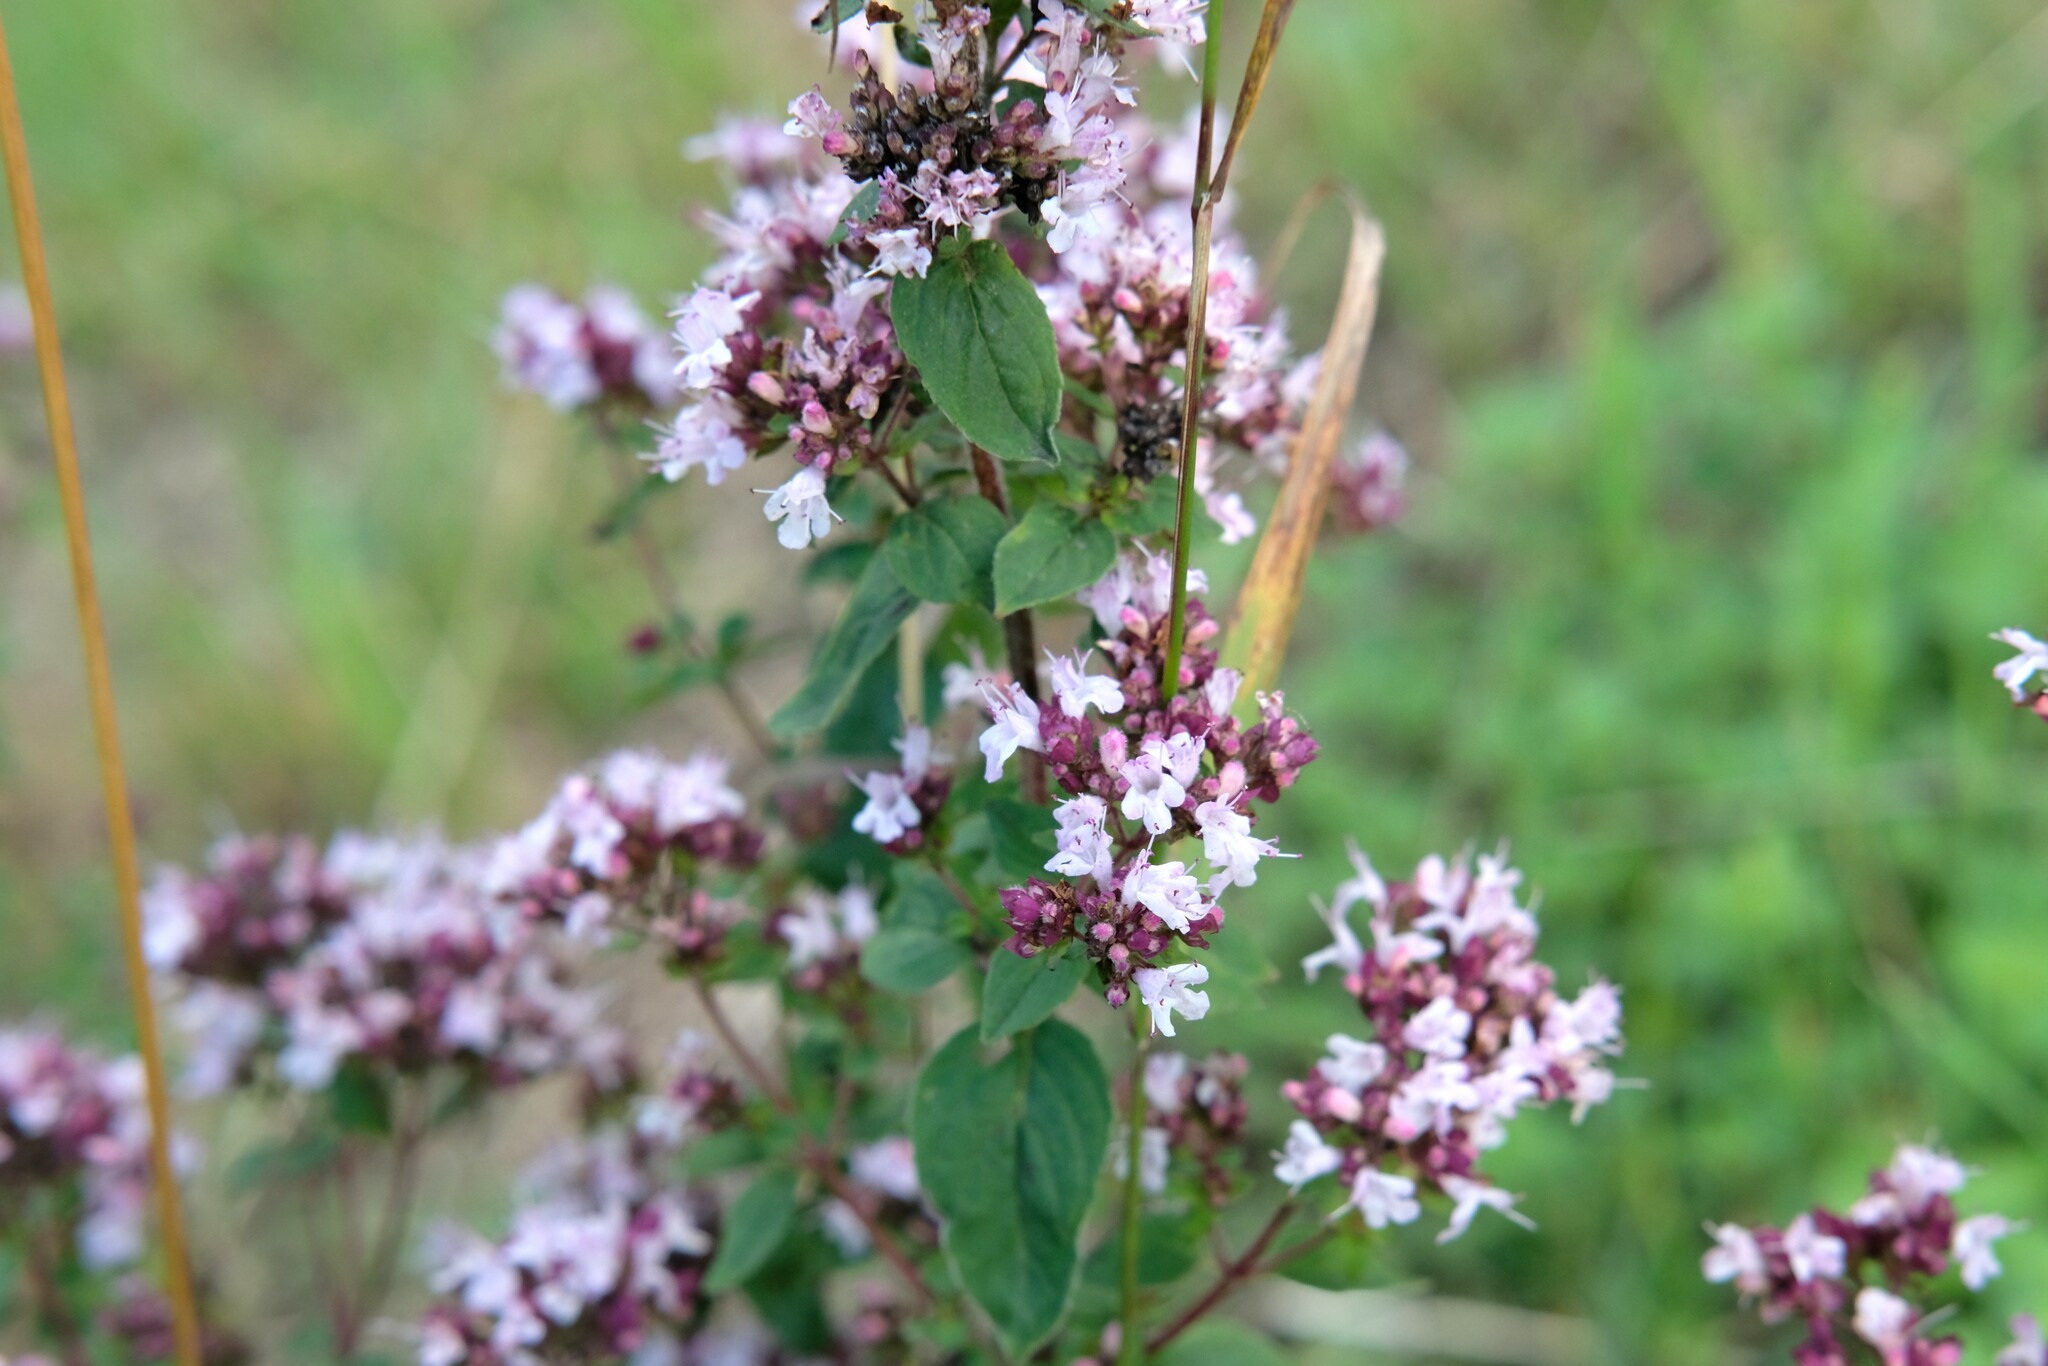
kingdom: Plantae
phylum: Tracheophyta
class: Magnoliopsida
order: Lamiales
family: Lamiaceae
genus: Origanum
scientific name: Origanum vulgare
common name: Wild marjoram
